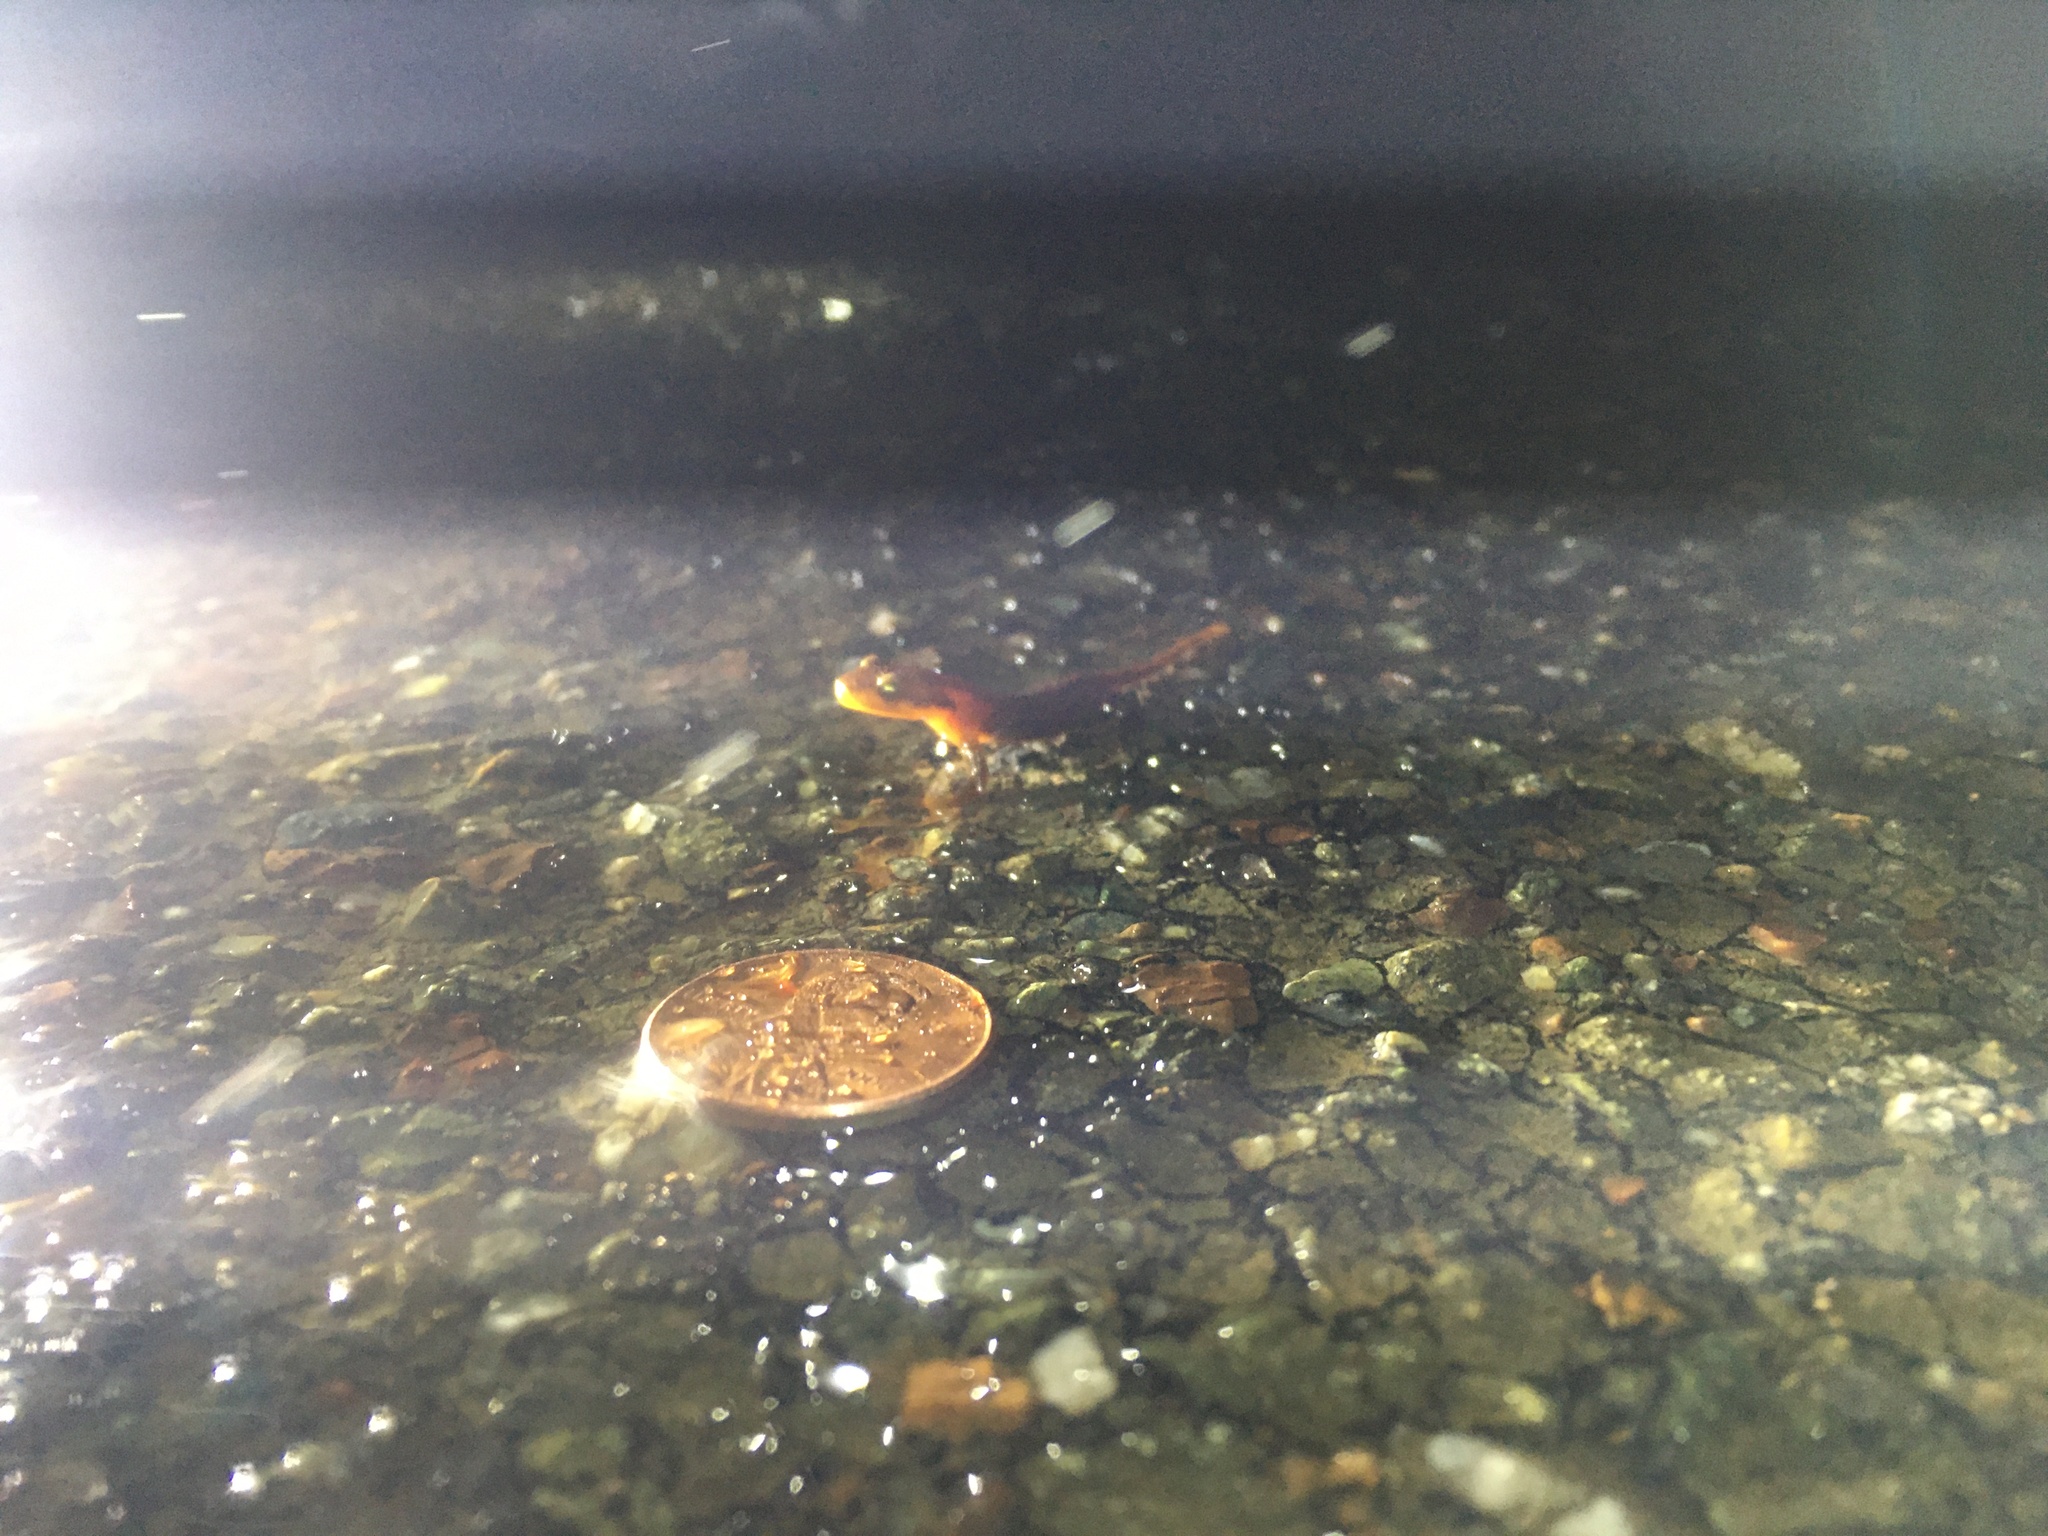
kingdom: Animalia
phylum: Chordata
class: Amphibia
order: Caudata
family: Salamandridae
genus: Taricha
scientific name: Taricha torosa
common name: California newt
